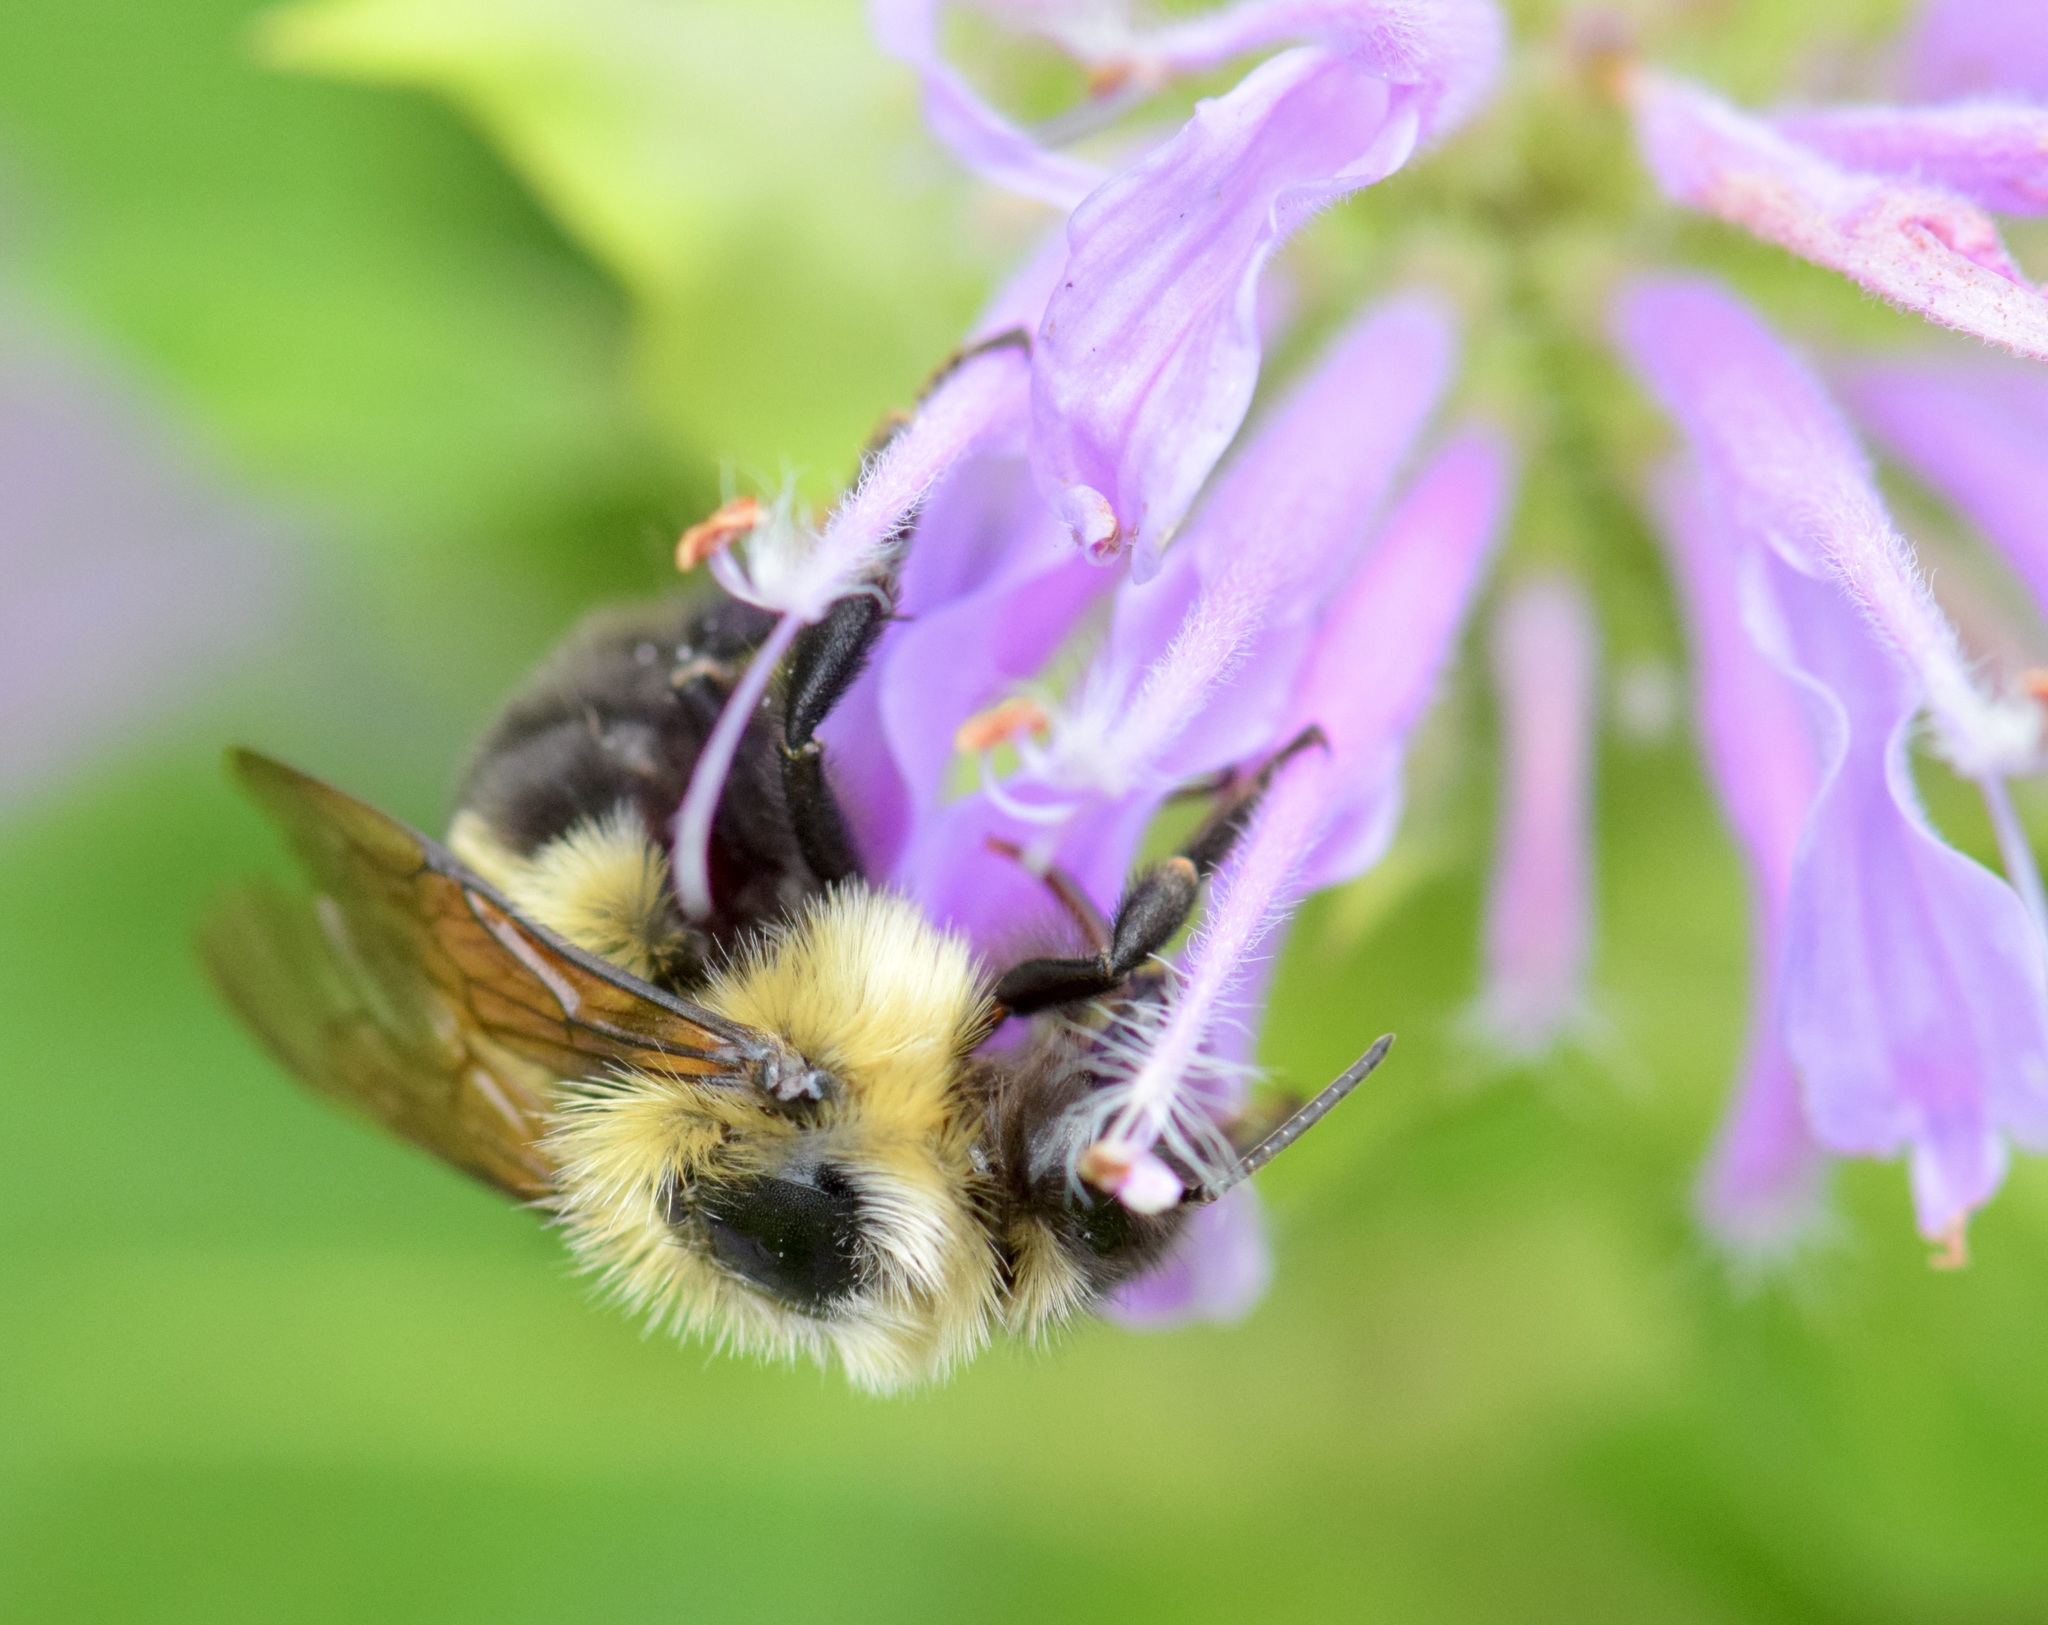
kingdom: Animalia
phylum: Arthropoda
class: Insecta
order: Hymenoptera
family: Apidae
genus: Bombus
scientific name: Bombus bimaculatus
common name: Two-spotted bumble bee
